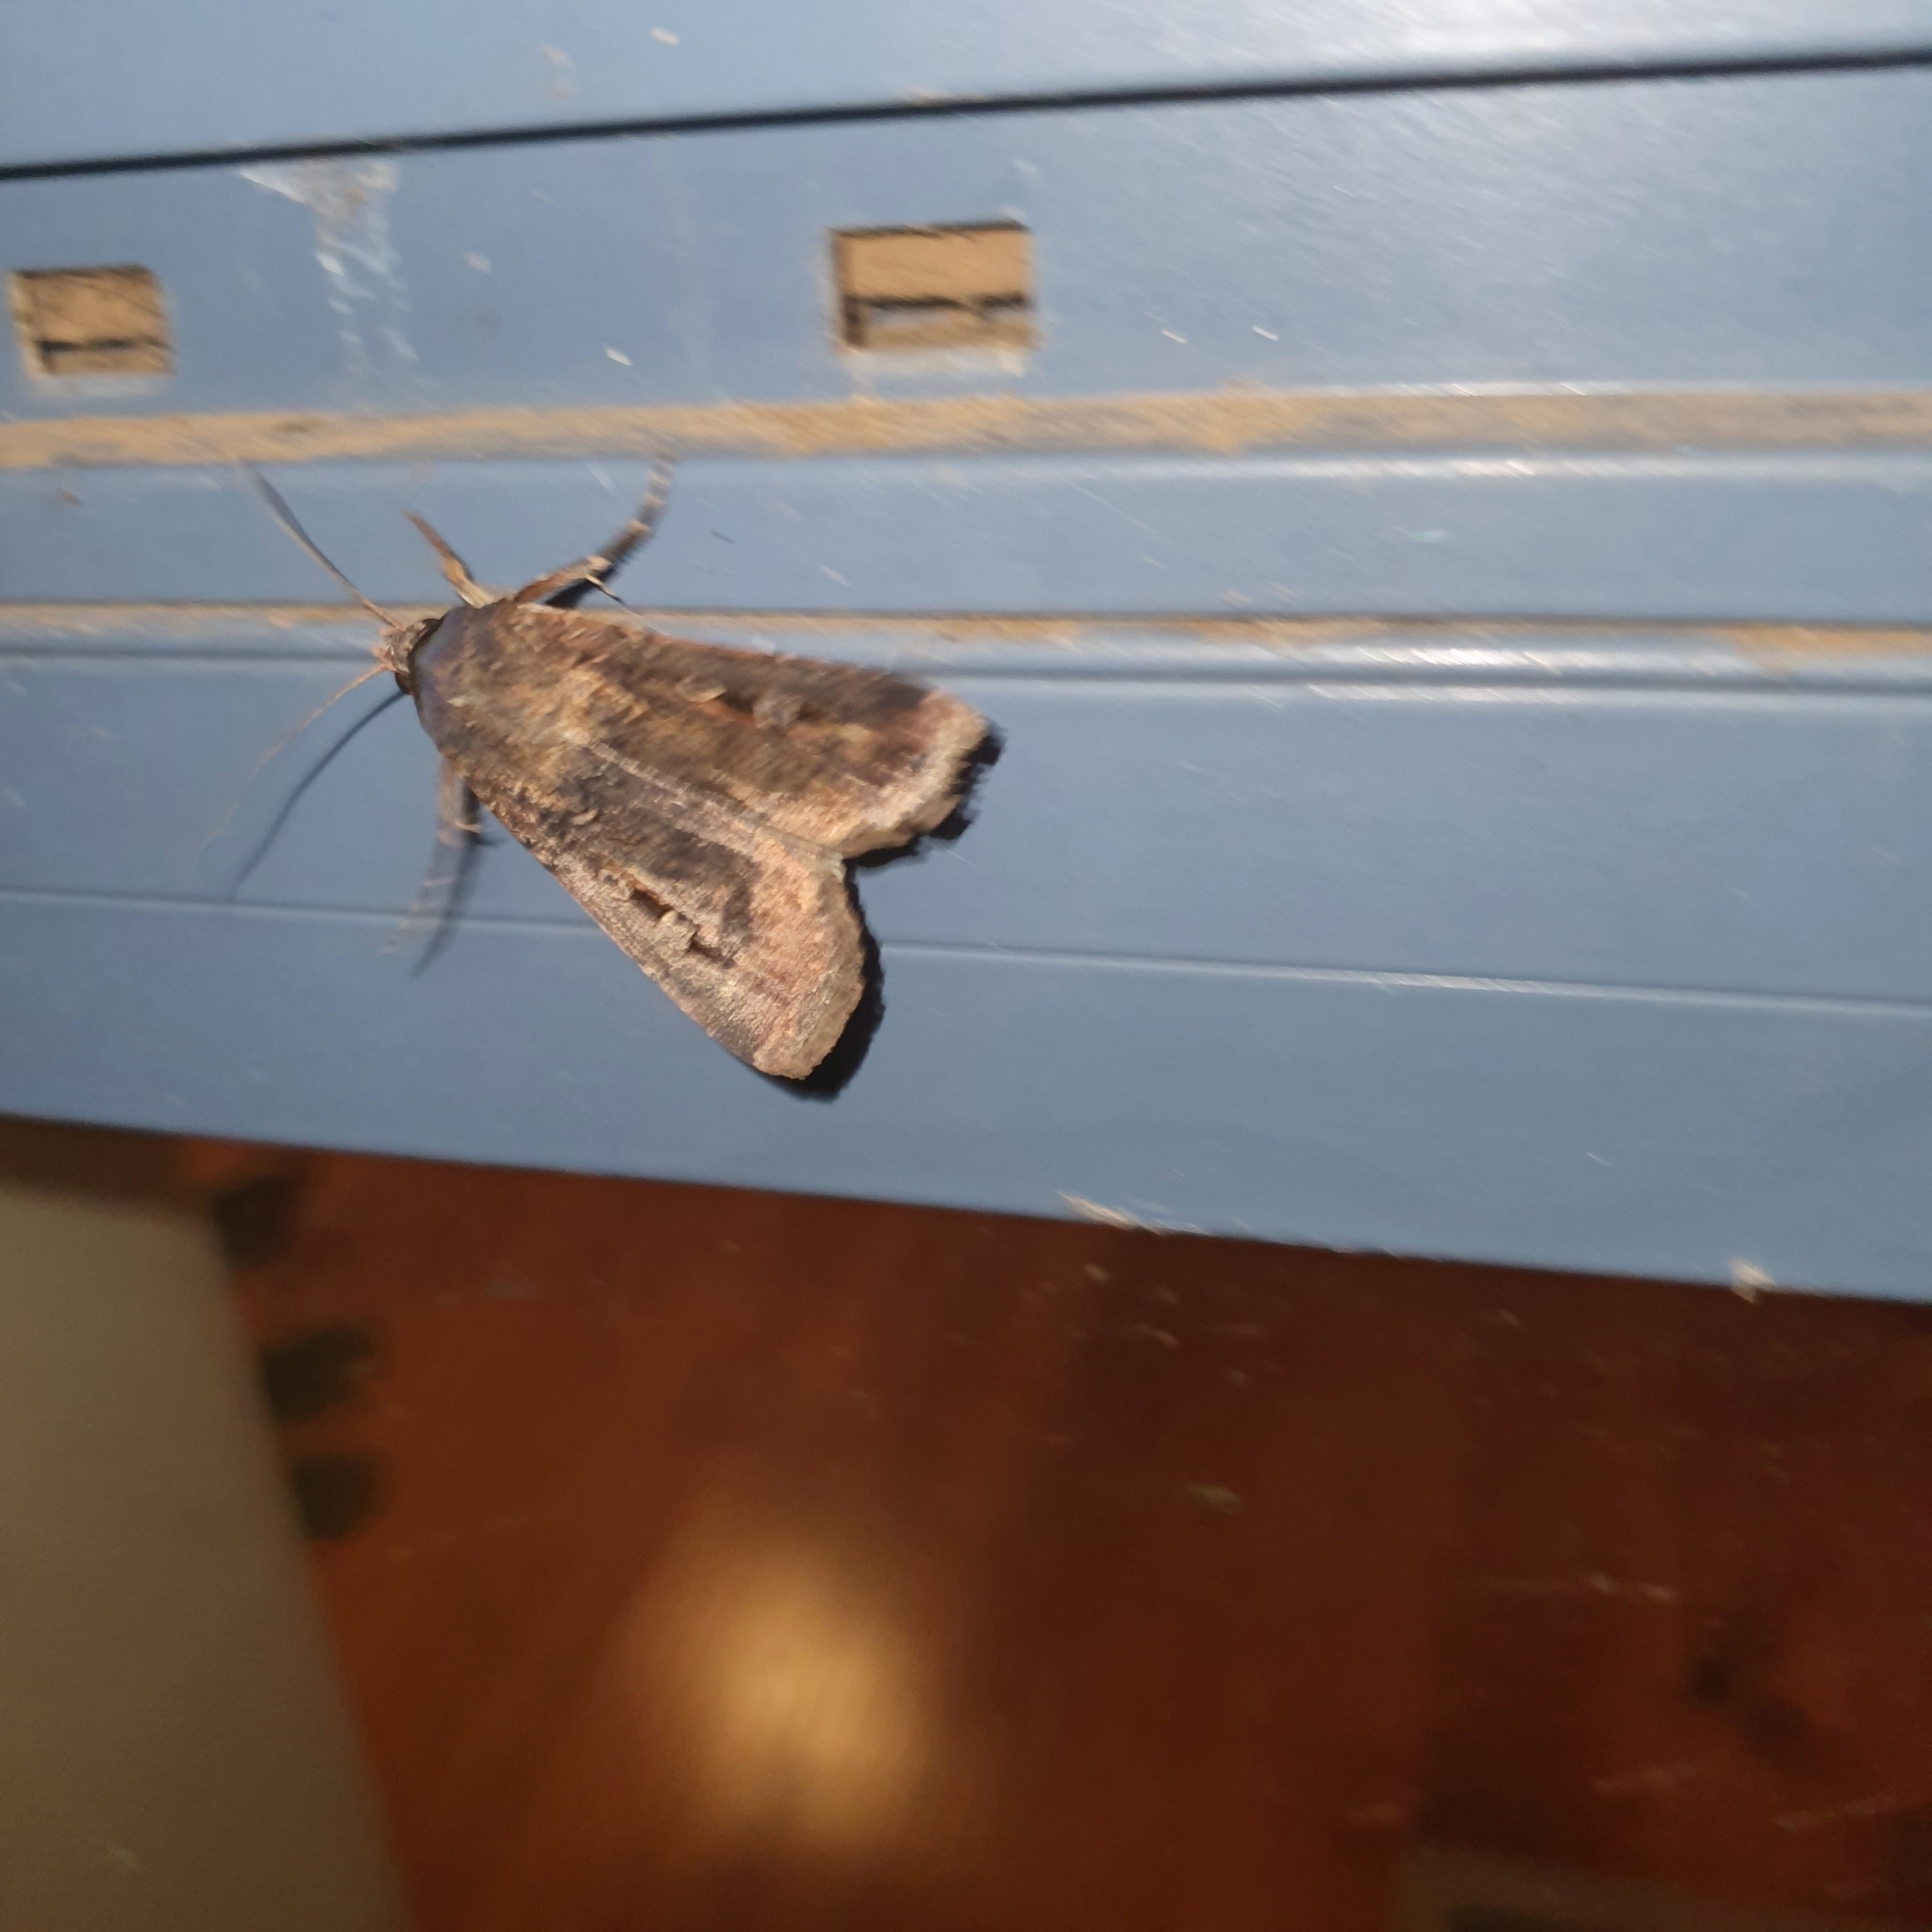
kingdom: Animalia
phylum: Arthropoda
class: Insecta
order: Lepidoptera
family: Noctuidae
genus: Agrotis
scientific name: Agrotis infusa
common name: Bogong moth
